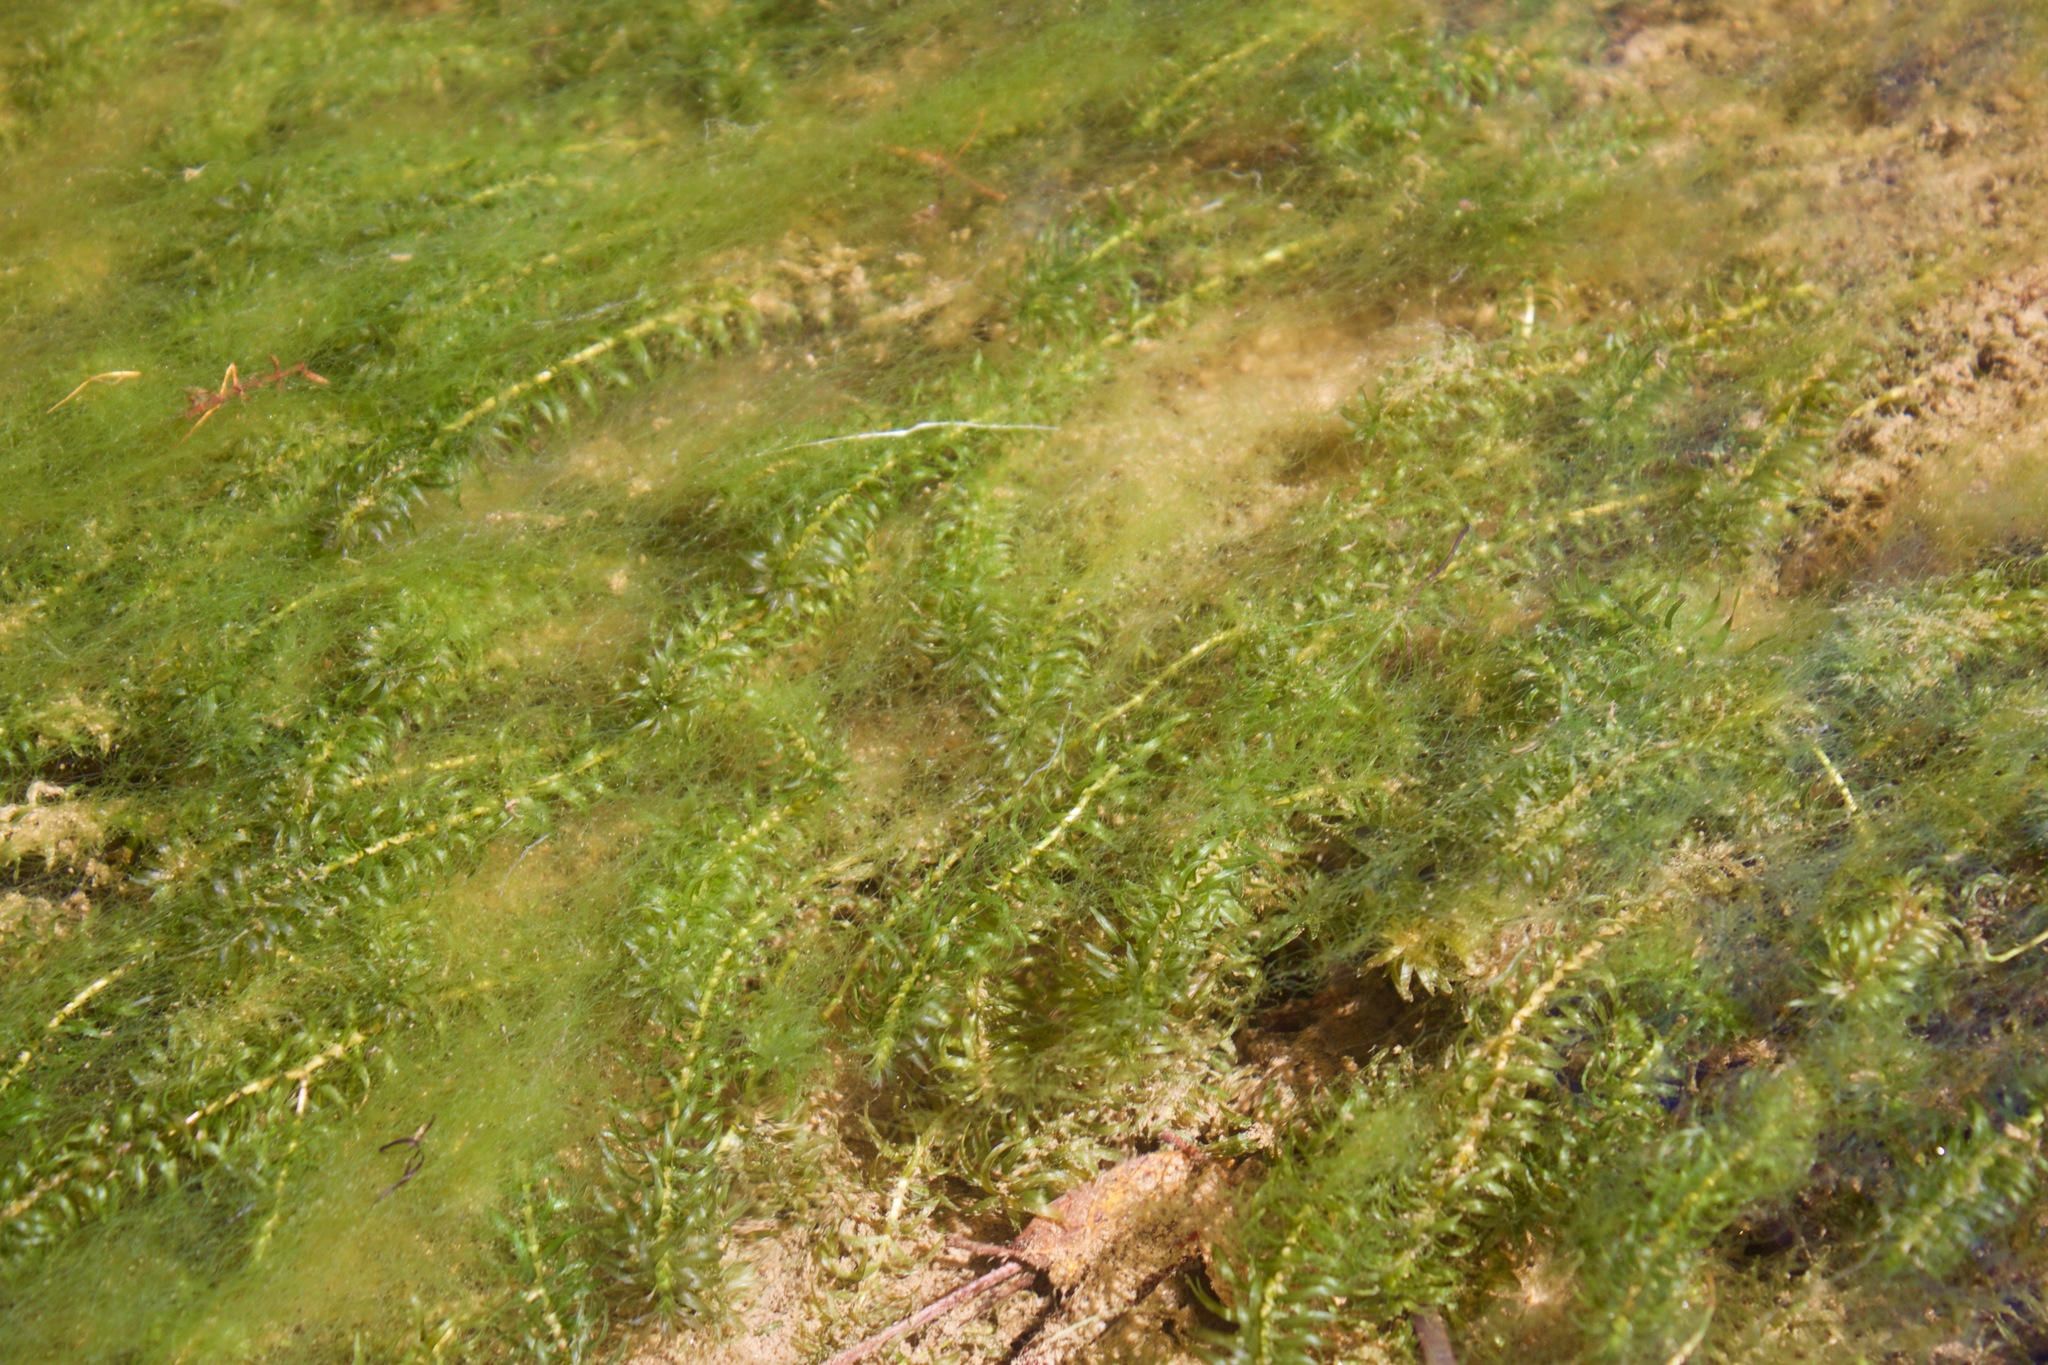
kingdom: Plantae
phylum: Tracheophyta
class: Liliopsida
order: Alismatales
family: Hydrocharitaceae
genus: Elodea
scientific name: Elodea densa
